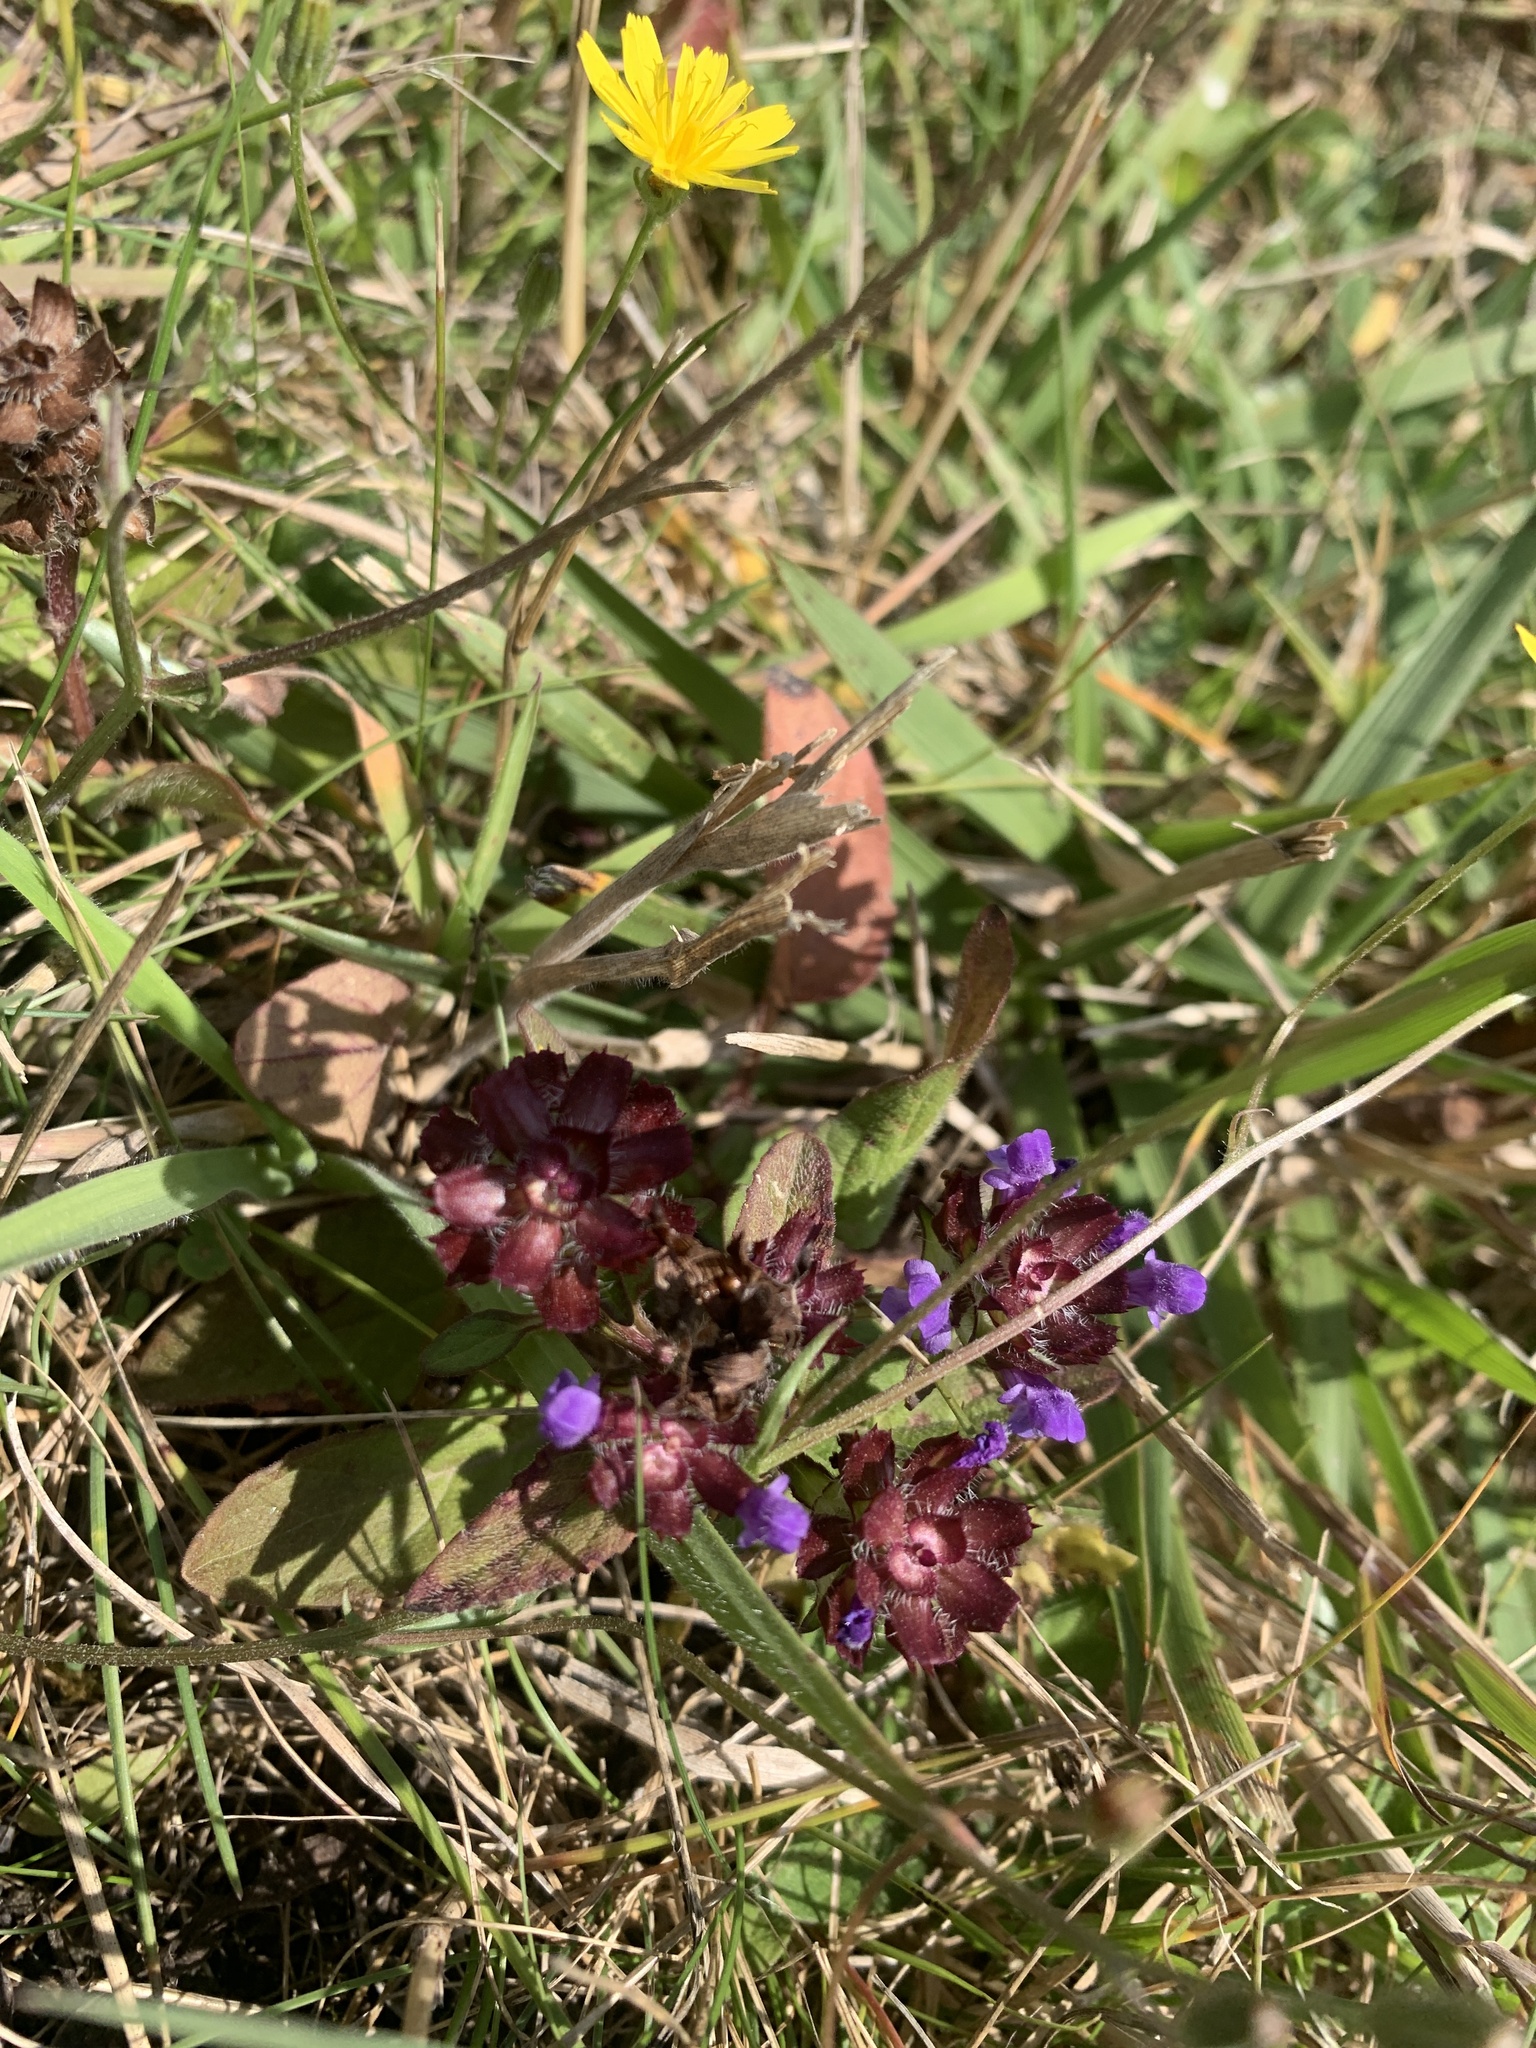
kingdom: Plantae
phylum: Tracheophyta
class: Magnoliopsida
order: Lamiales
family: Lamiaceae
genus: Prunella
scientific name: Prunella vulgaris
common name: Heal-all
